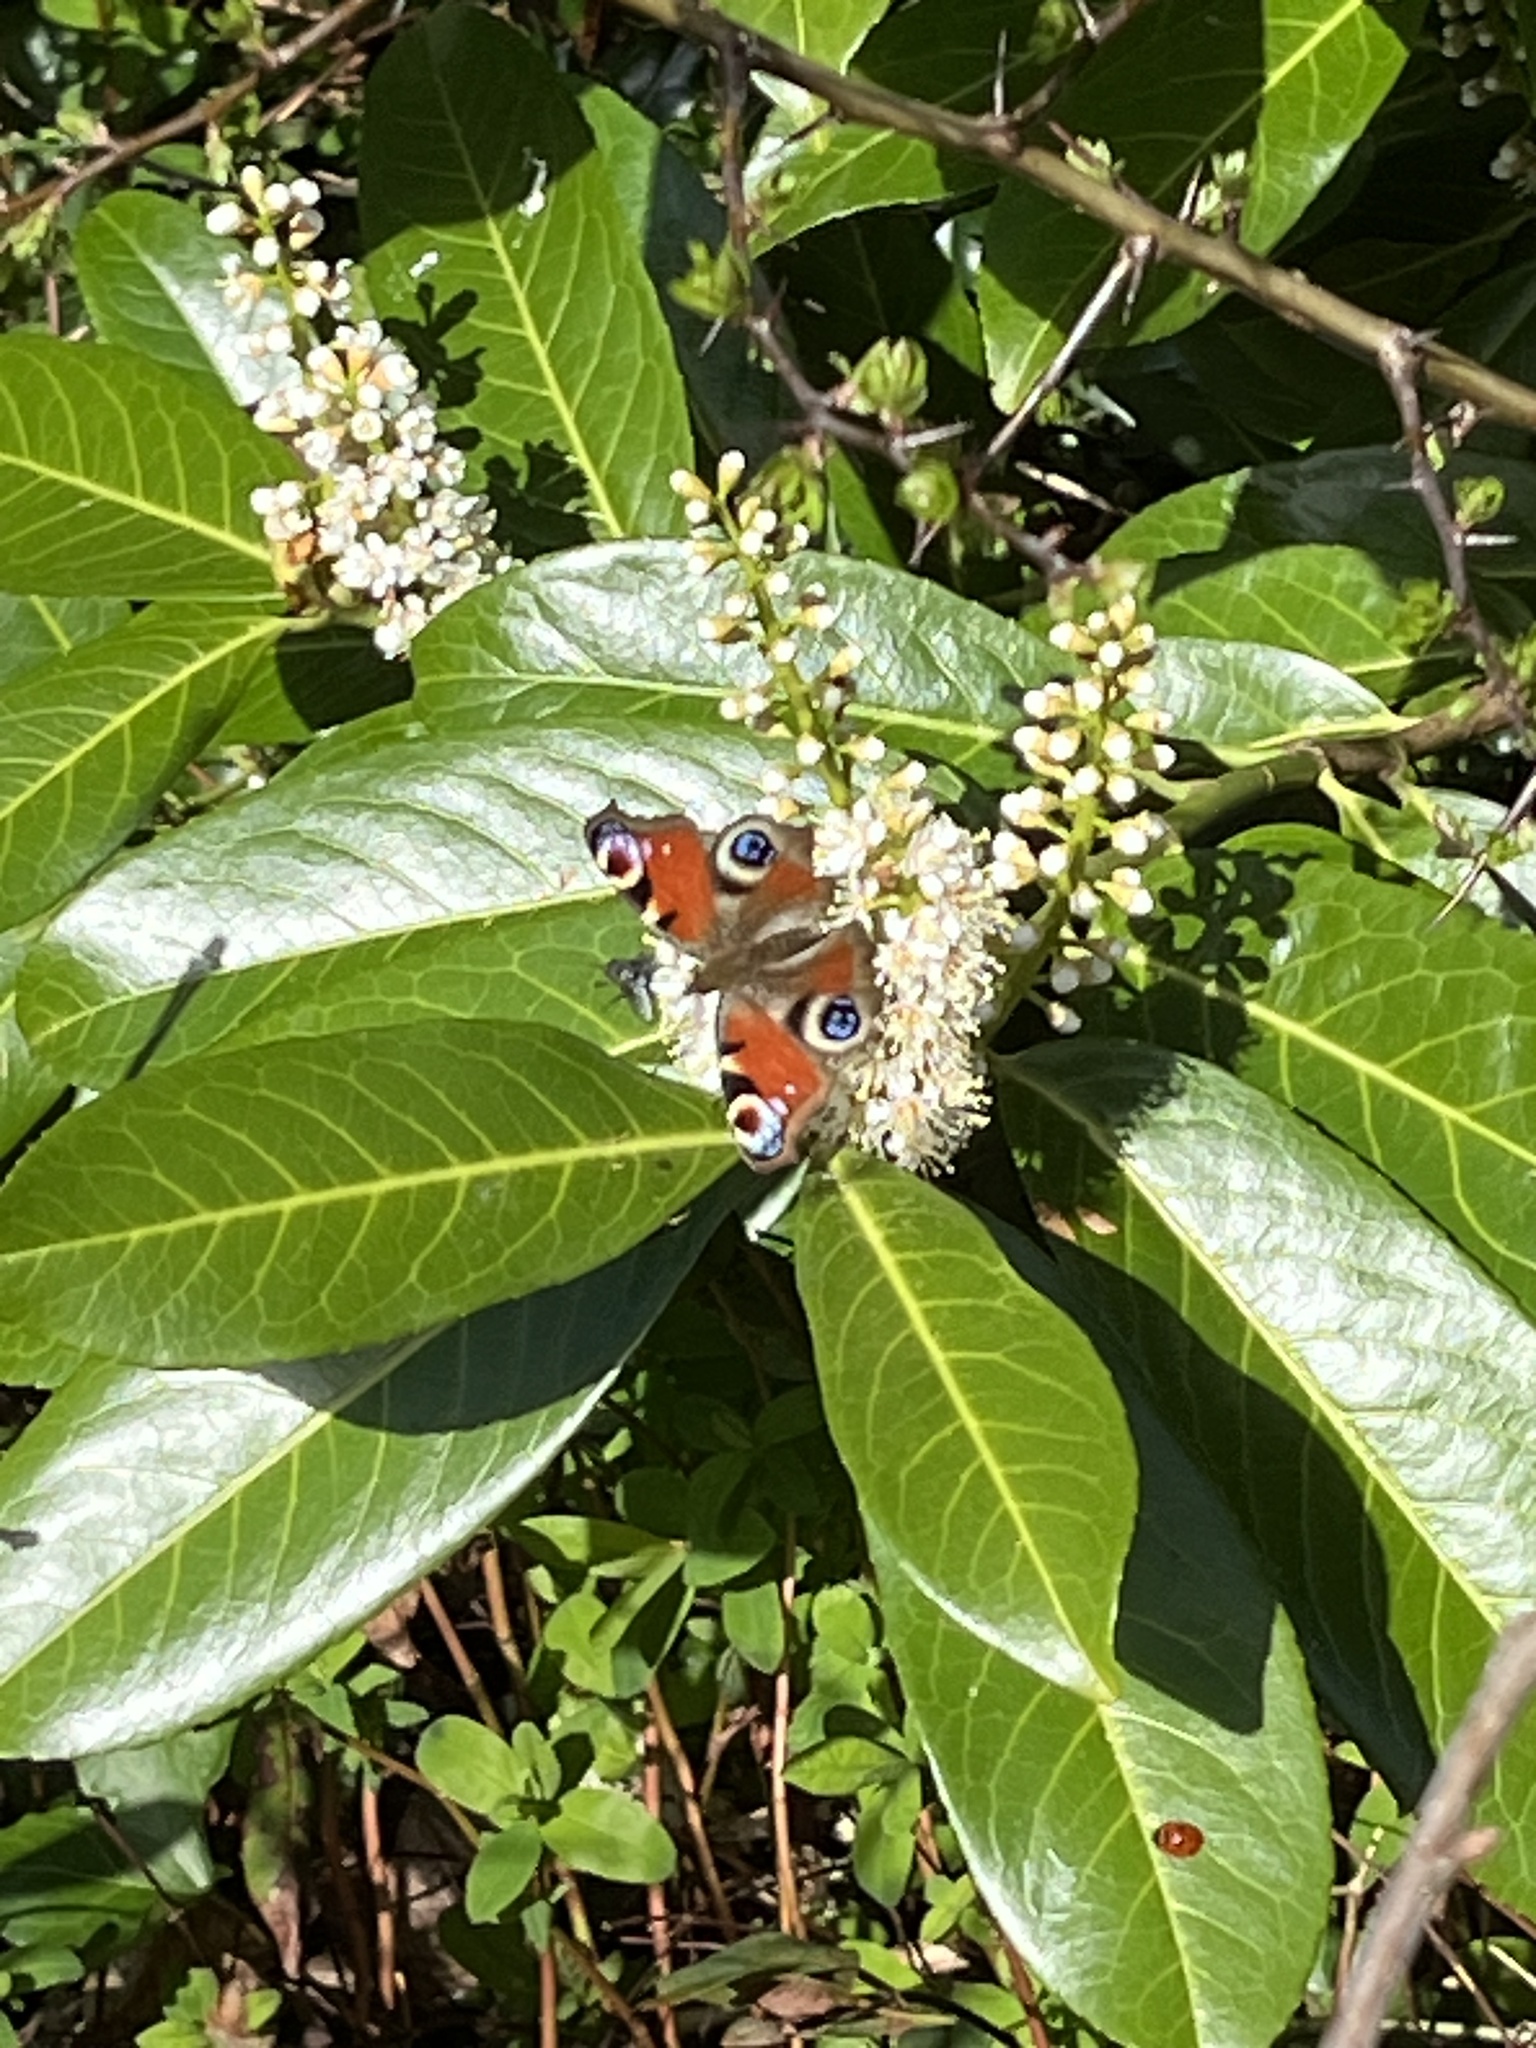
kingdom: Animalia
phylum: Arthropoda
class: Insecta
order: Lepidoptera
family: Nymphalidae
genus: Aglais
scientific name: Aglais io
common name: Peacock
